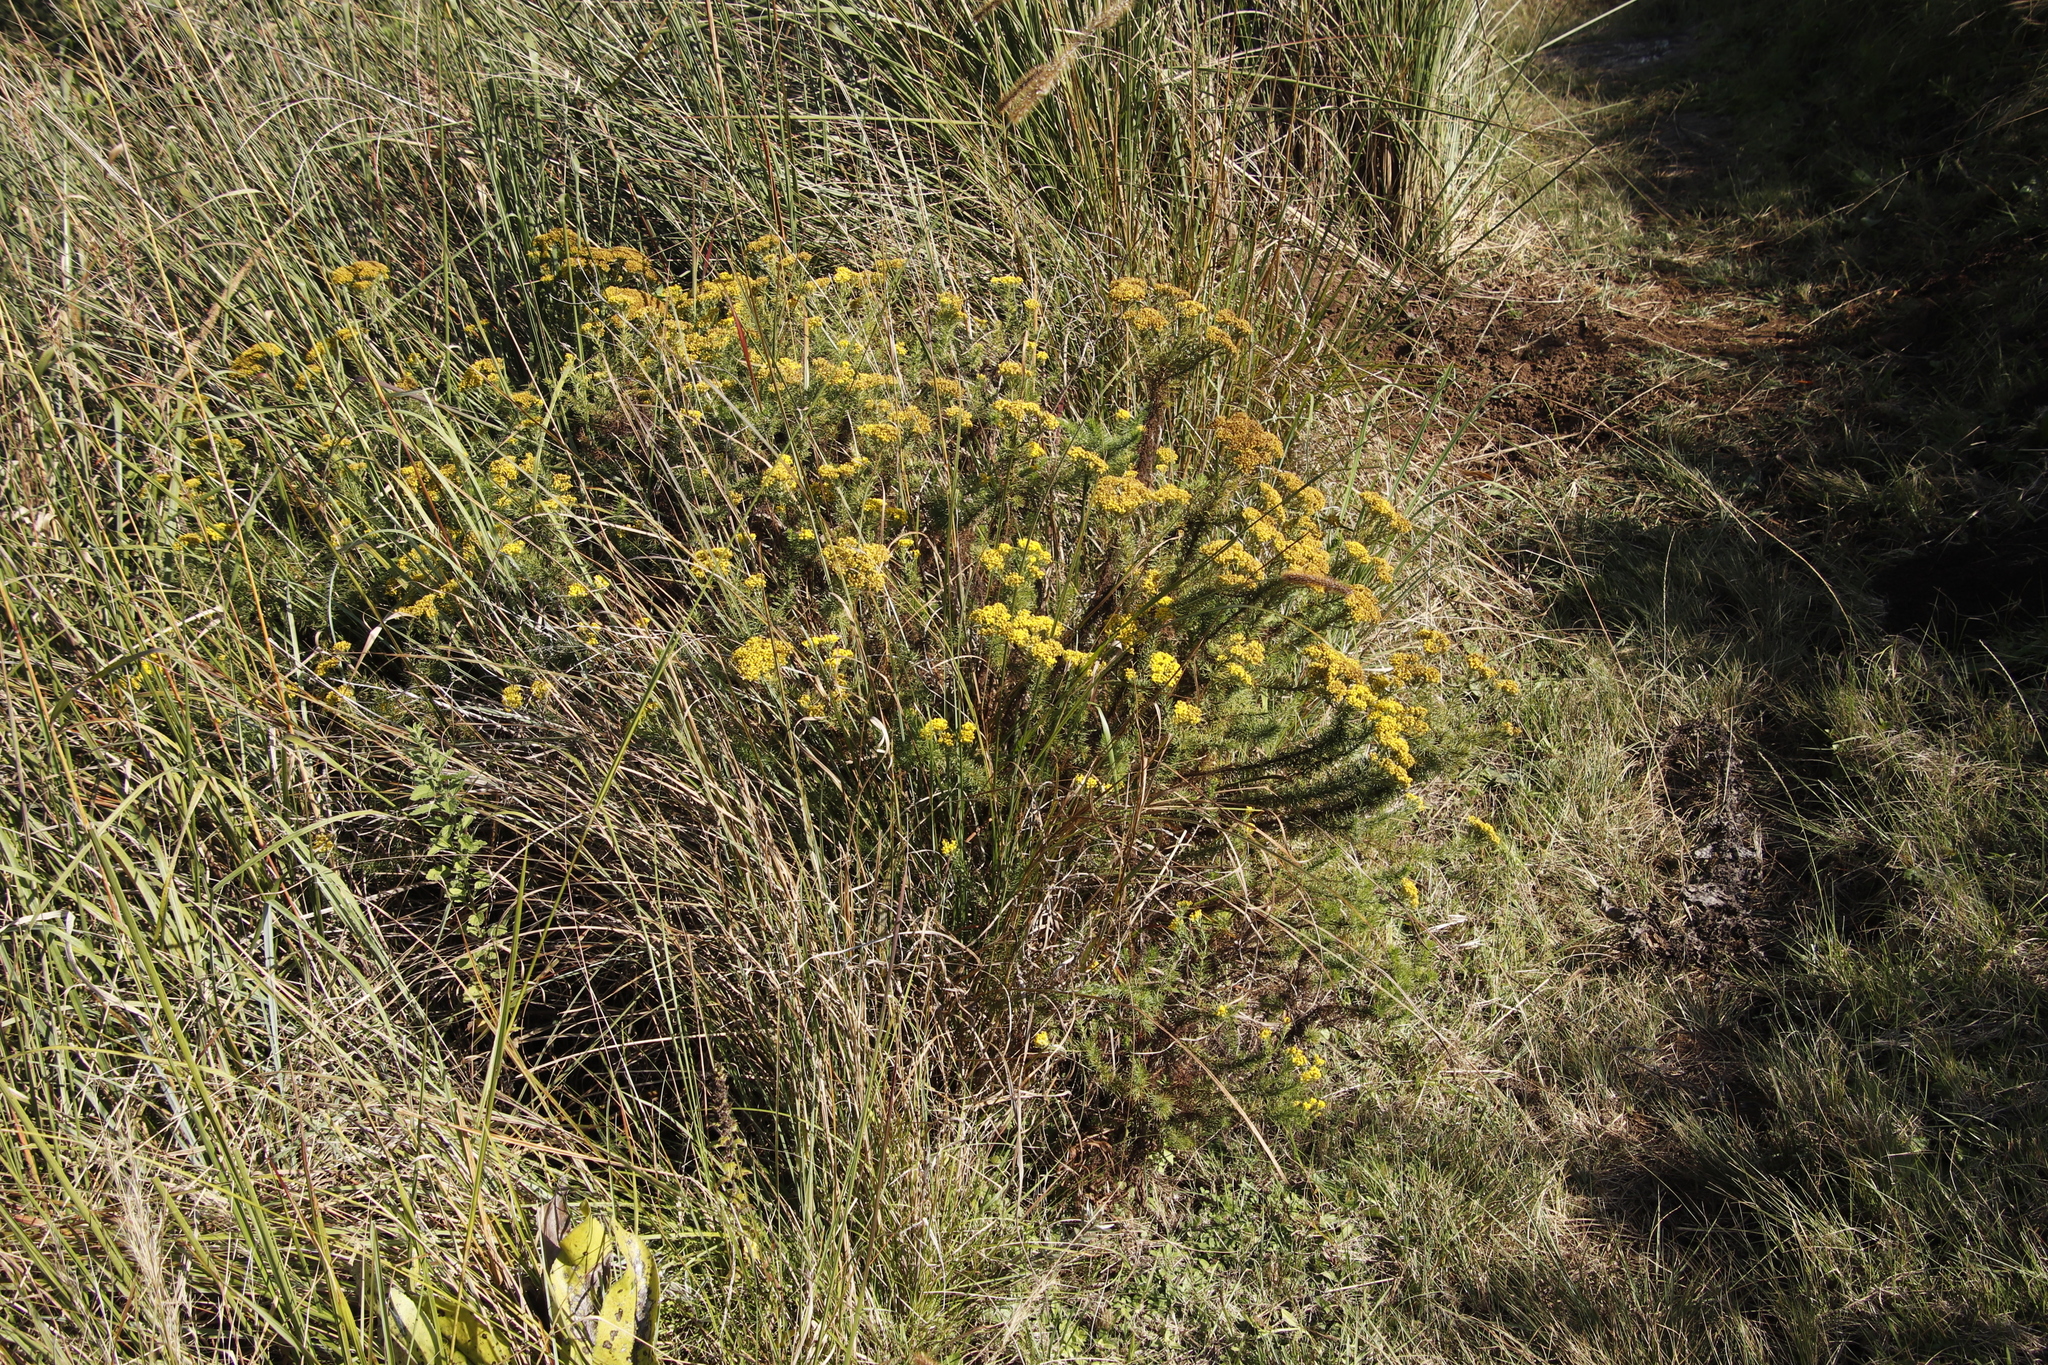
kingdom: Plantae
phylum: Tracheophyta
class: Magnoliopsida
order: Asterales
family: Asteraceae
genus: Phymaspermum
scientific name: Phymaspermum acerosum
